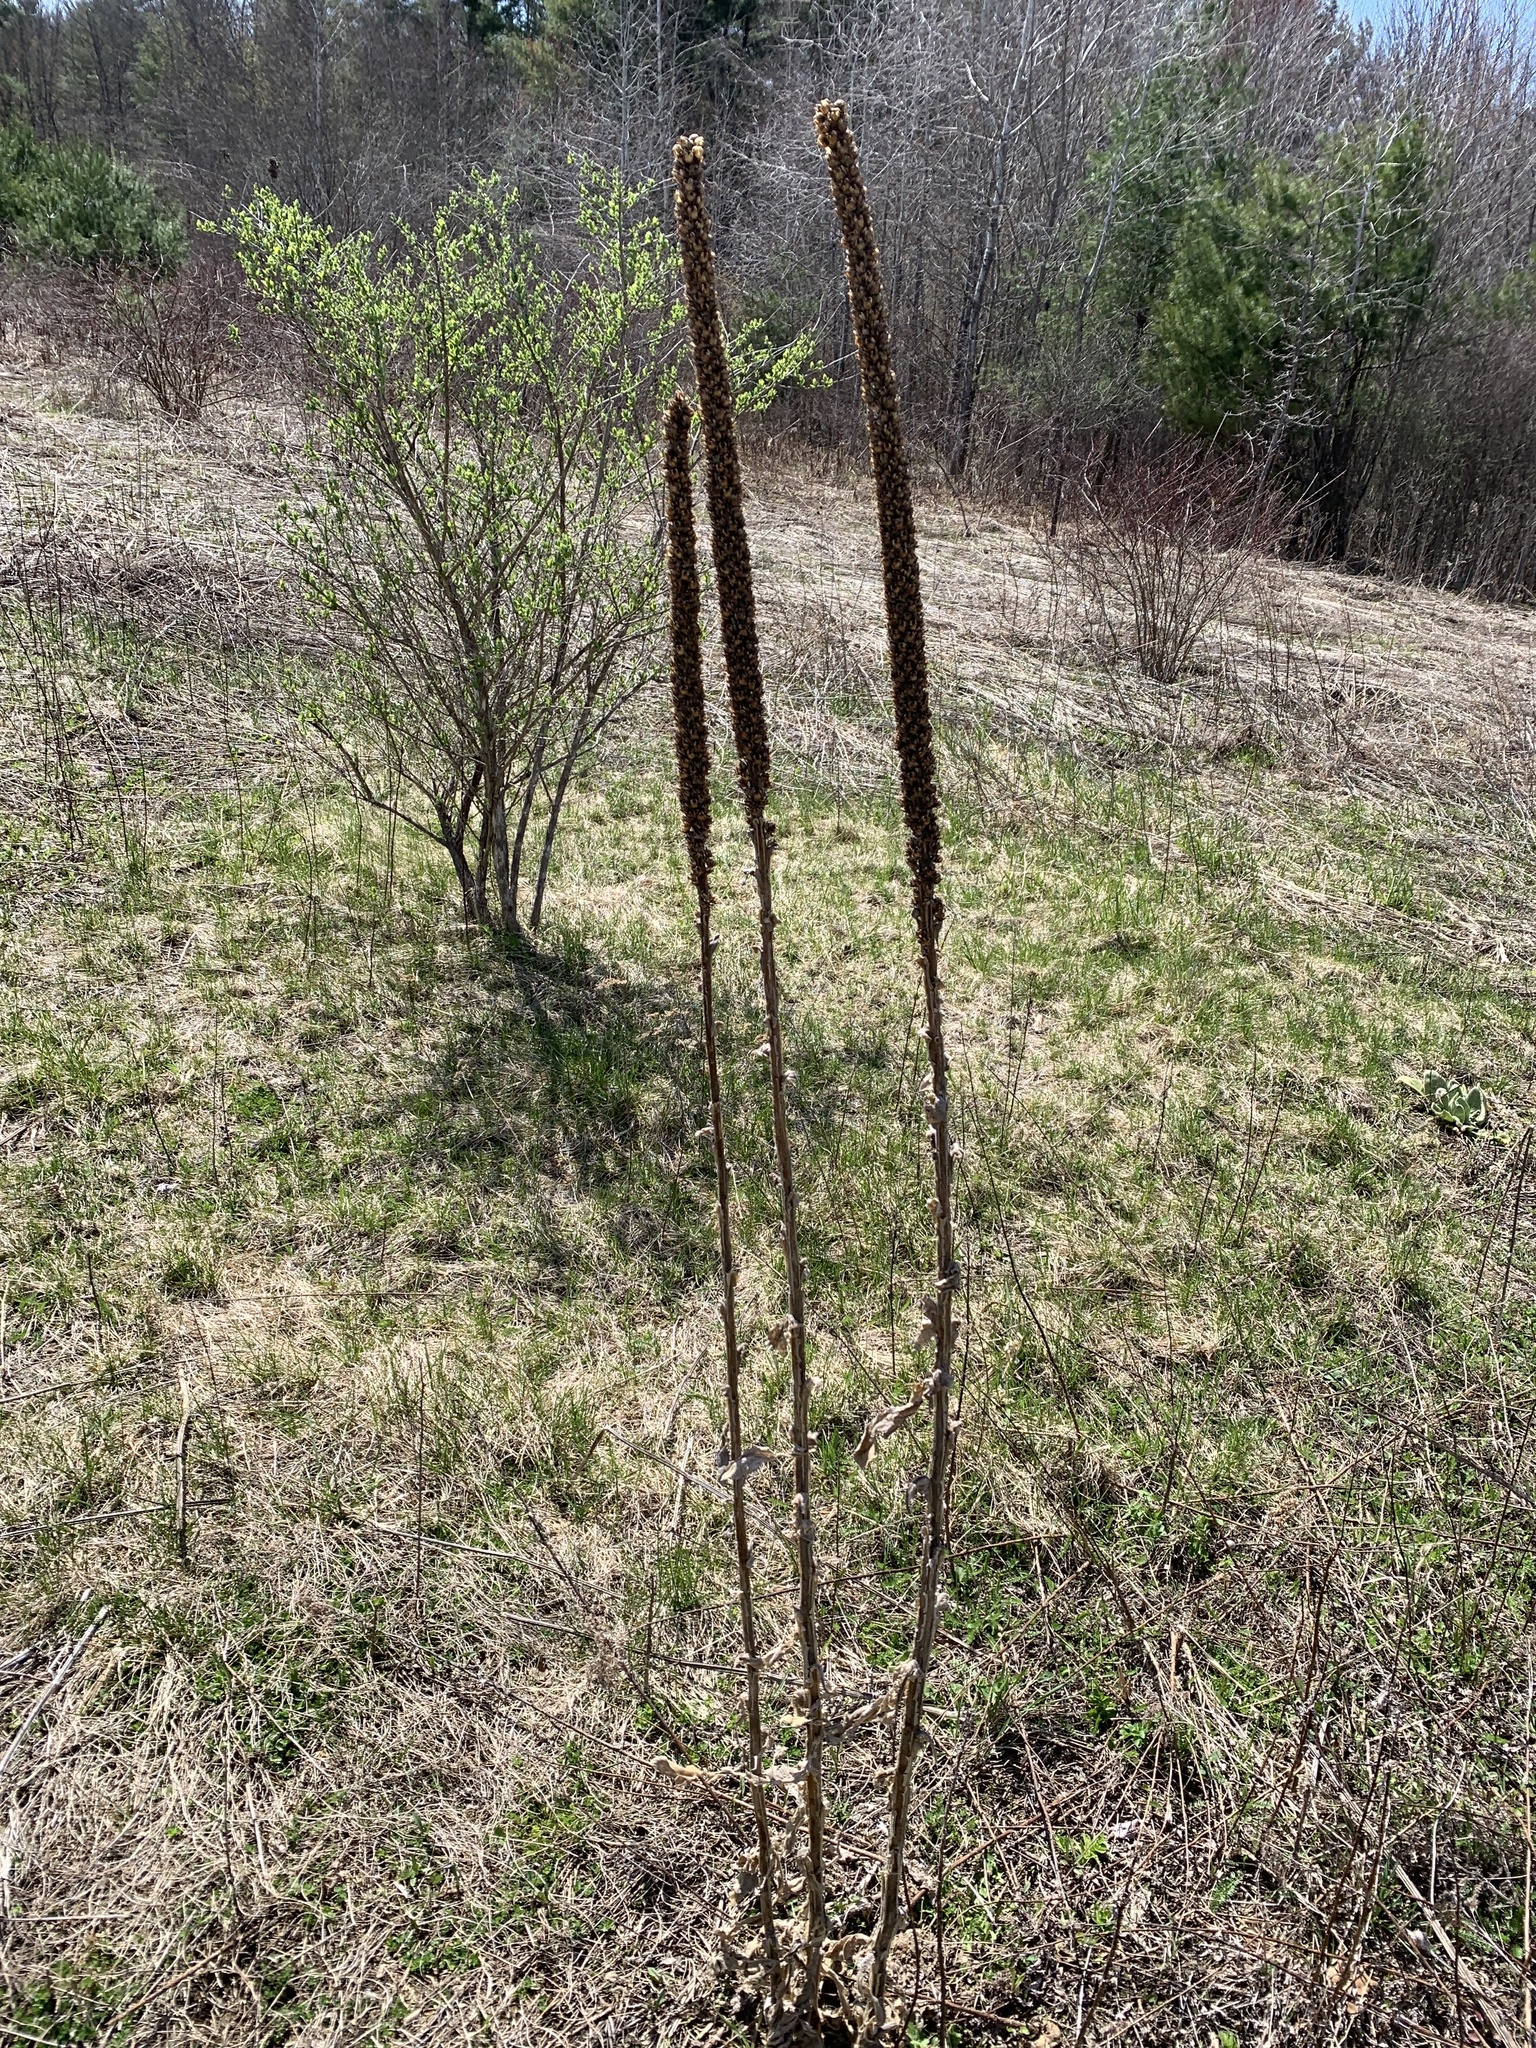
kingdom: Plantae
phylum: Tracheophyta
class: Magnoliopsida
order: Lamiales
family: Scrophulariaceae
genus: Verbascum
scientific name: Verbascum thapsus
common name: Common mullein
